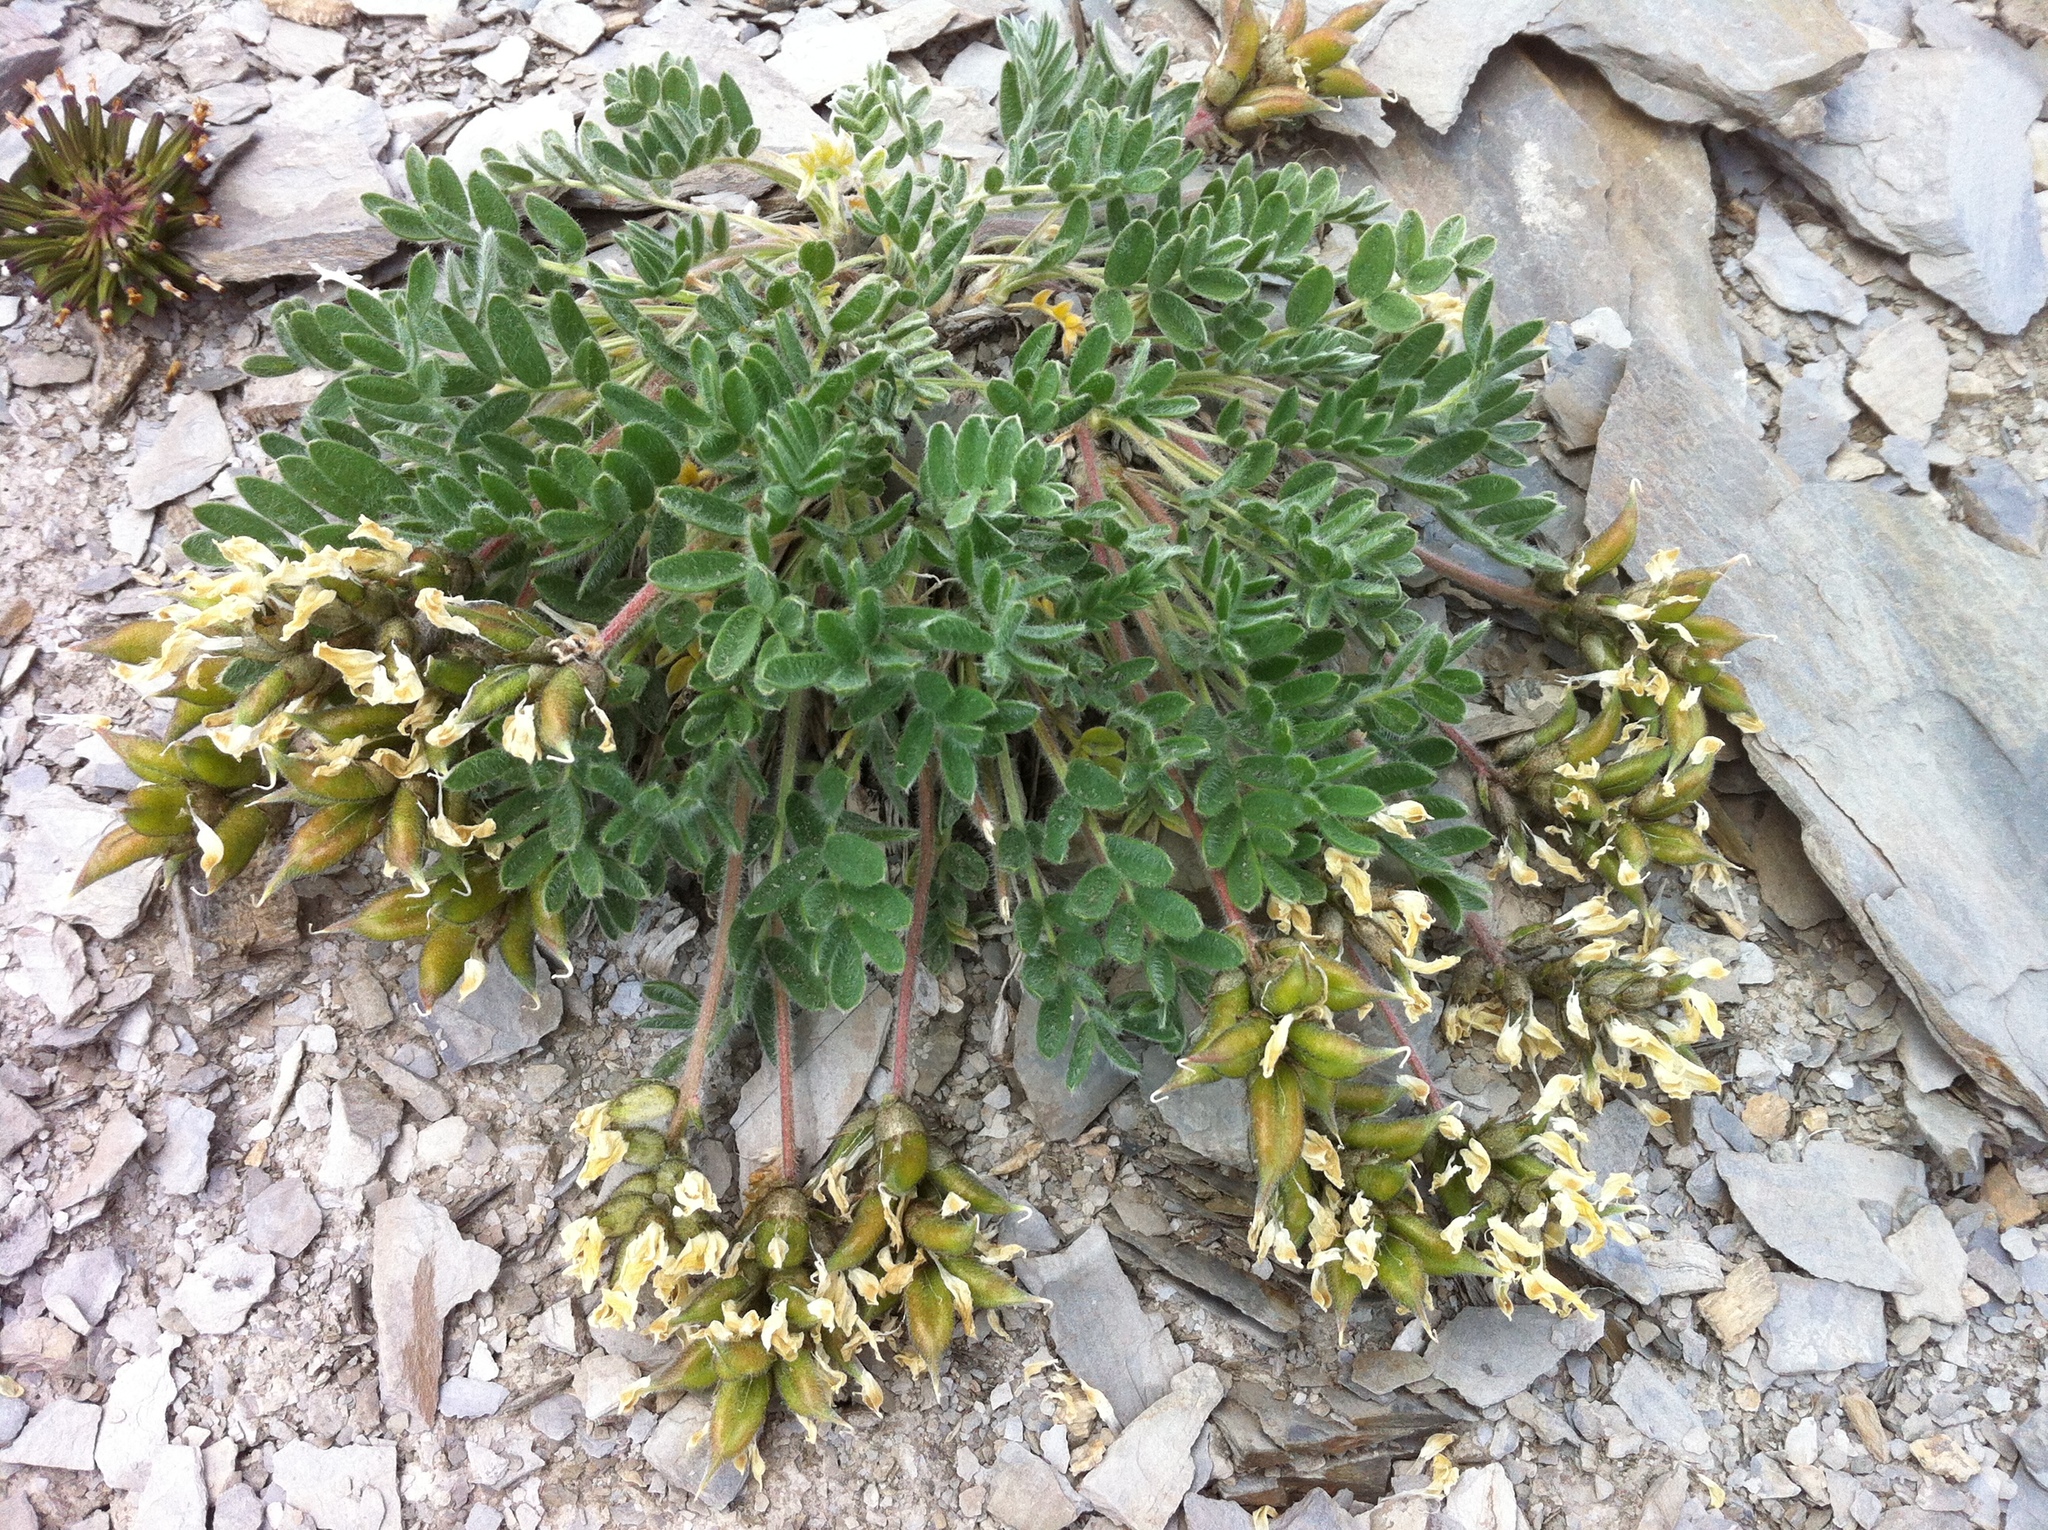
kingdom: Plantae
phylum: Tracheophyta
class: Magnoliopsida
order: Fabales
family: Fabaceae
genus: Oxytropis
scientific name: Oxytropis campestris
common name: Field locoweed
